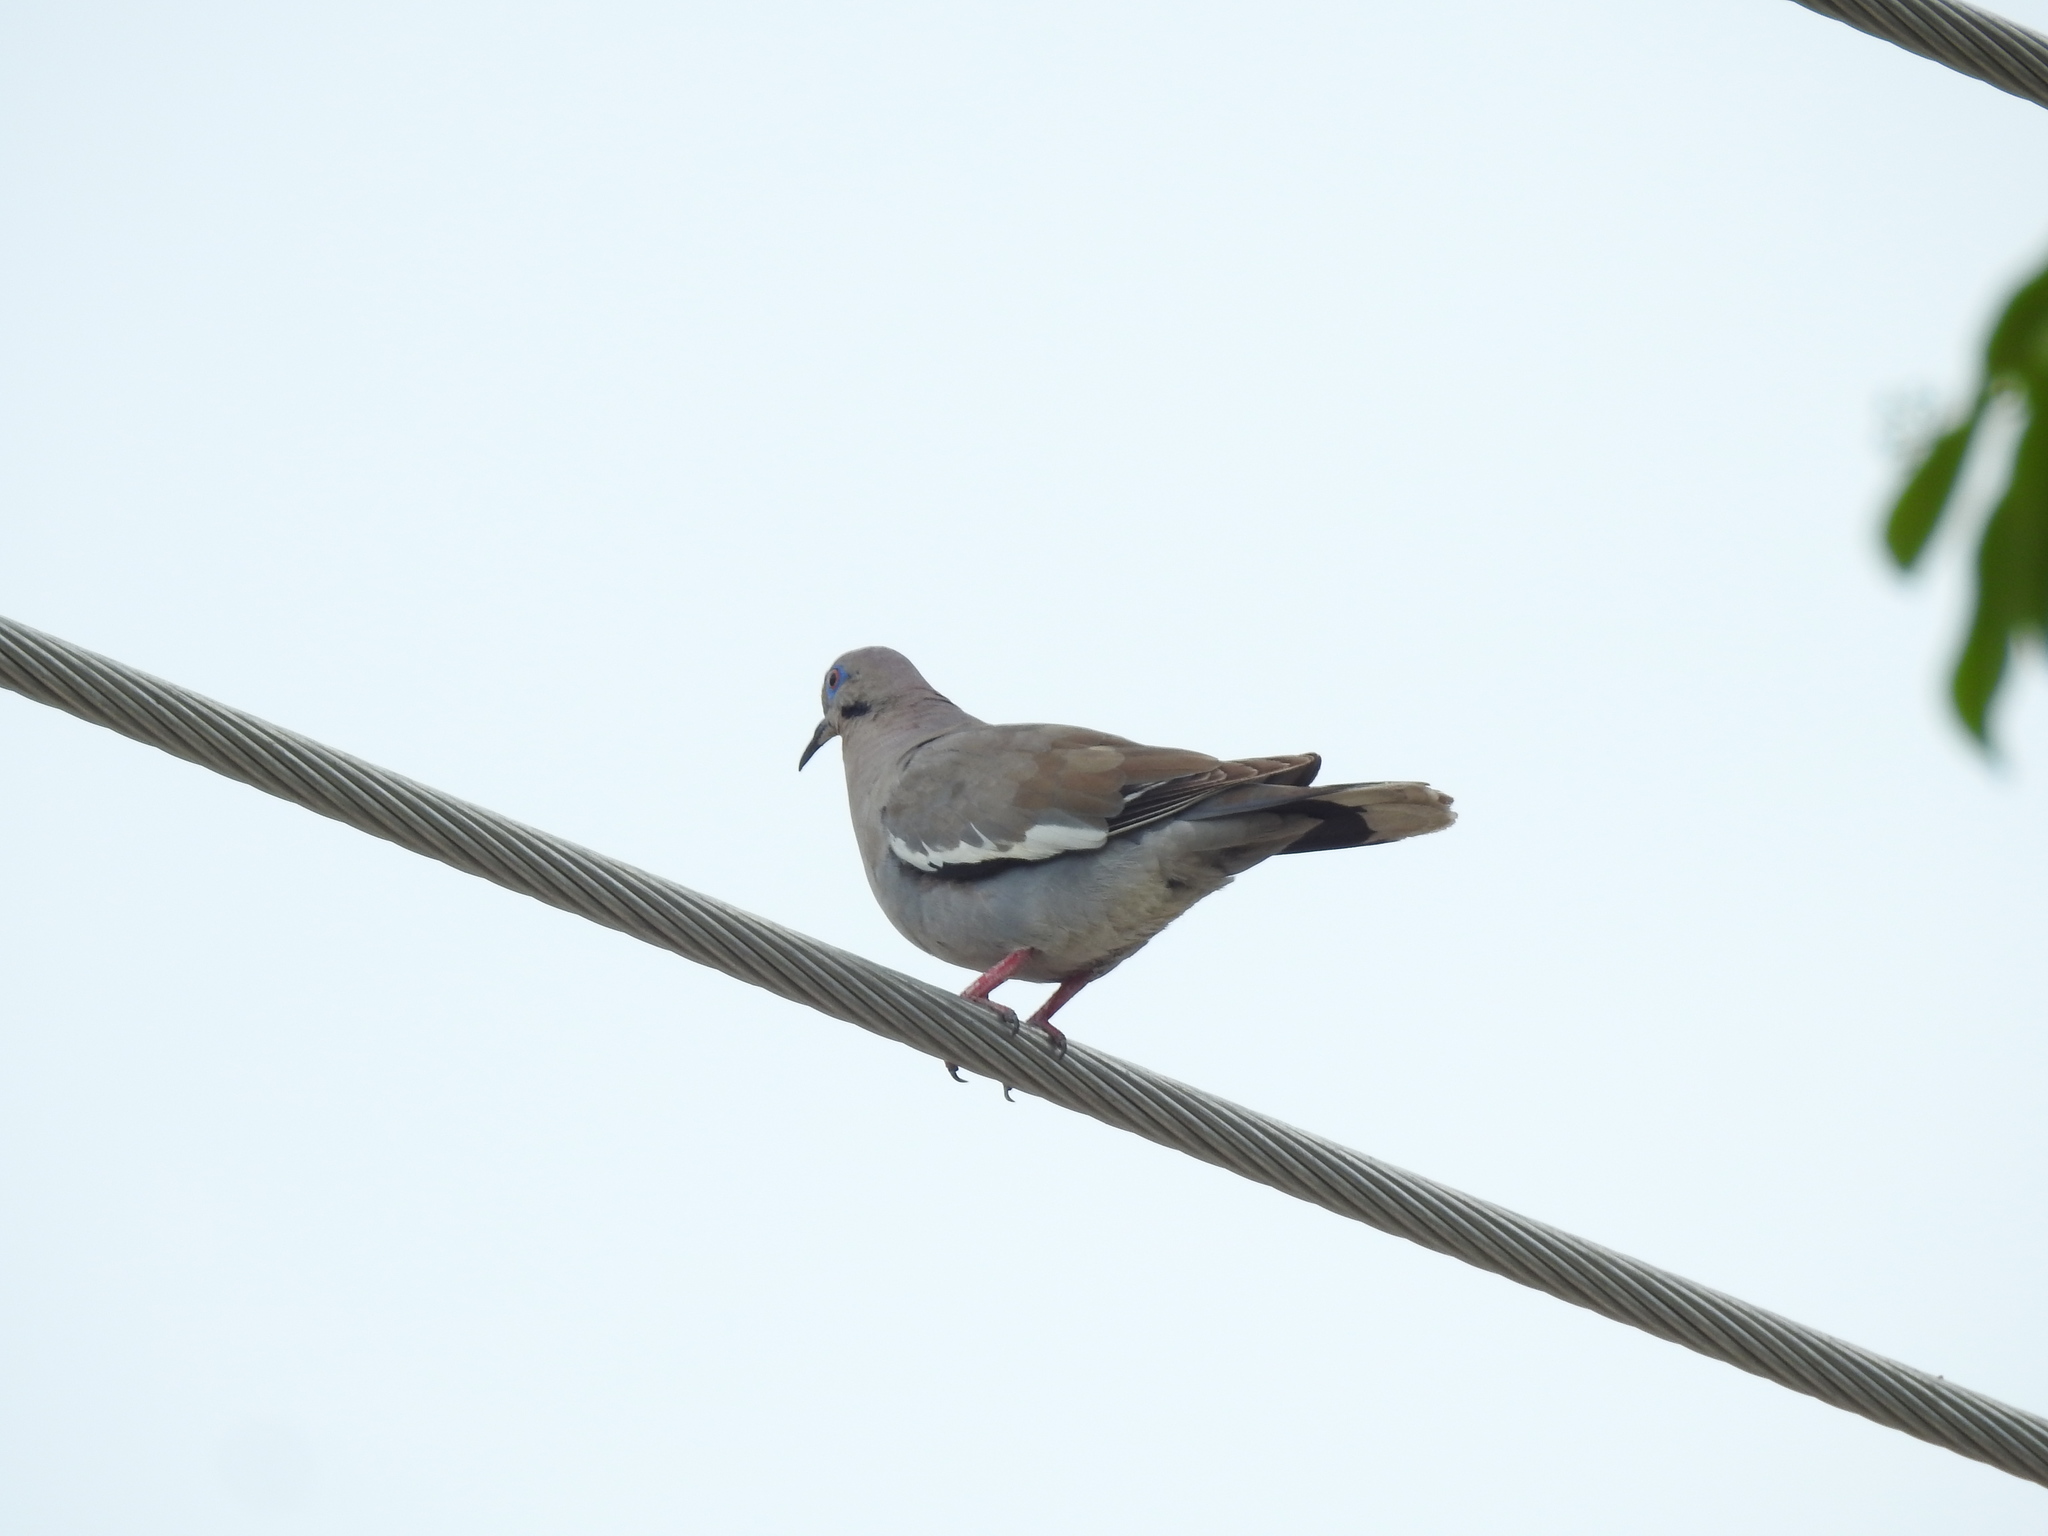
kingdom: Animalia
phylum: Chordata
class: Aves
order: Columbiformes
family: Columbidae
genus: Zenaida
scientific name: Zenaida asiatica
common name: White-winged dove
